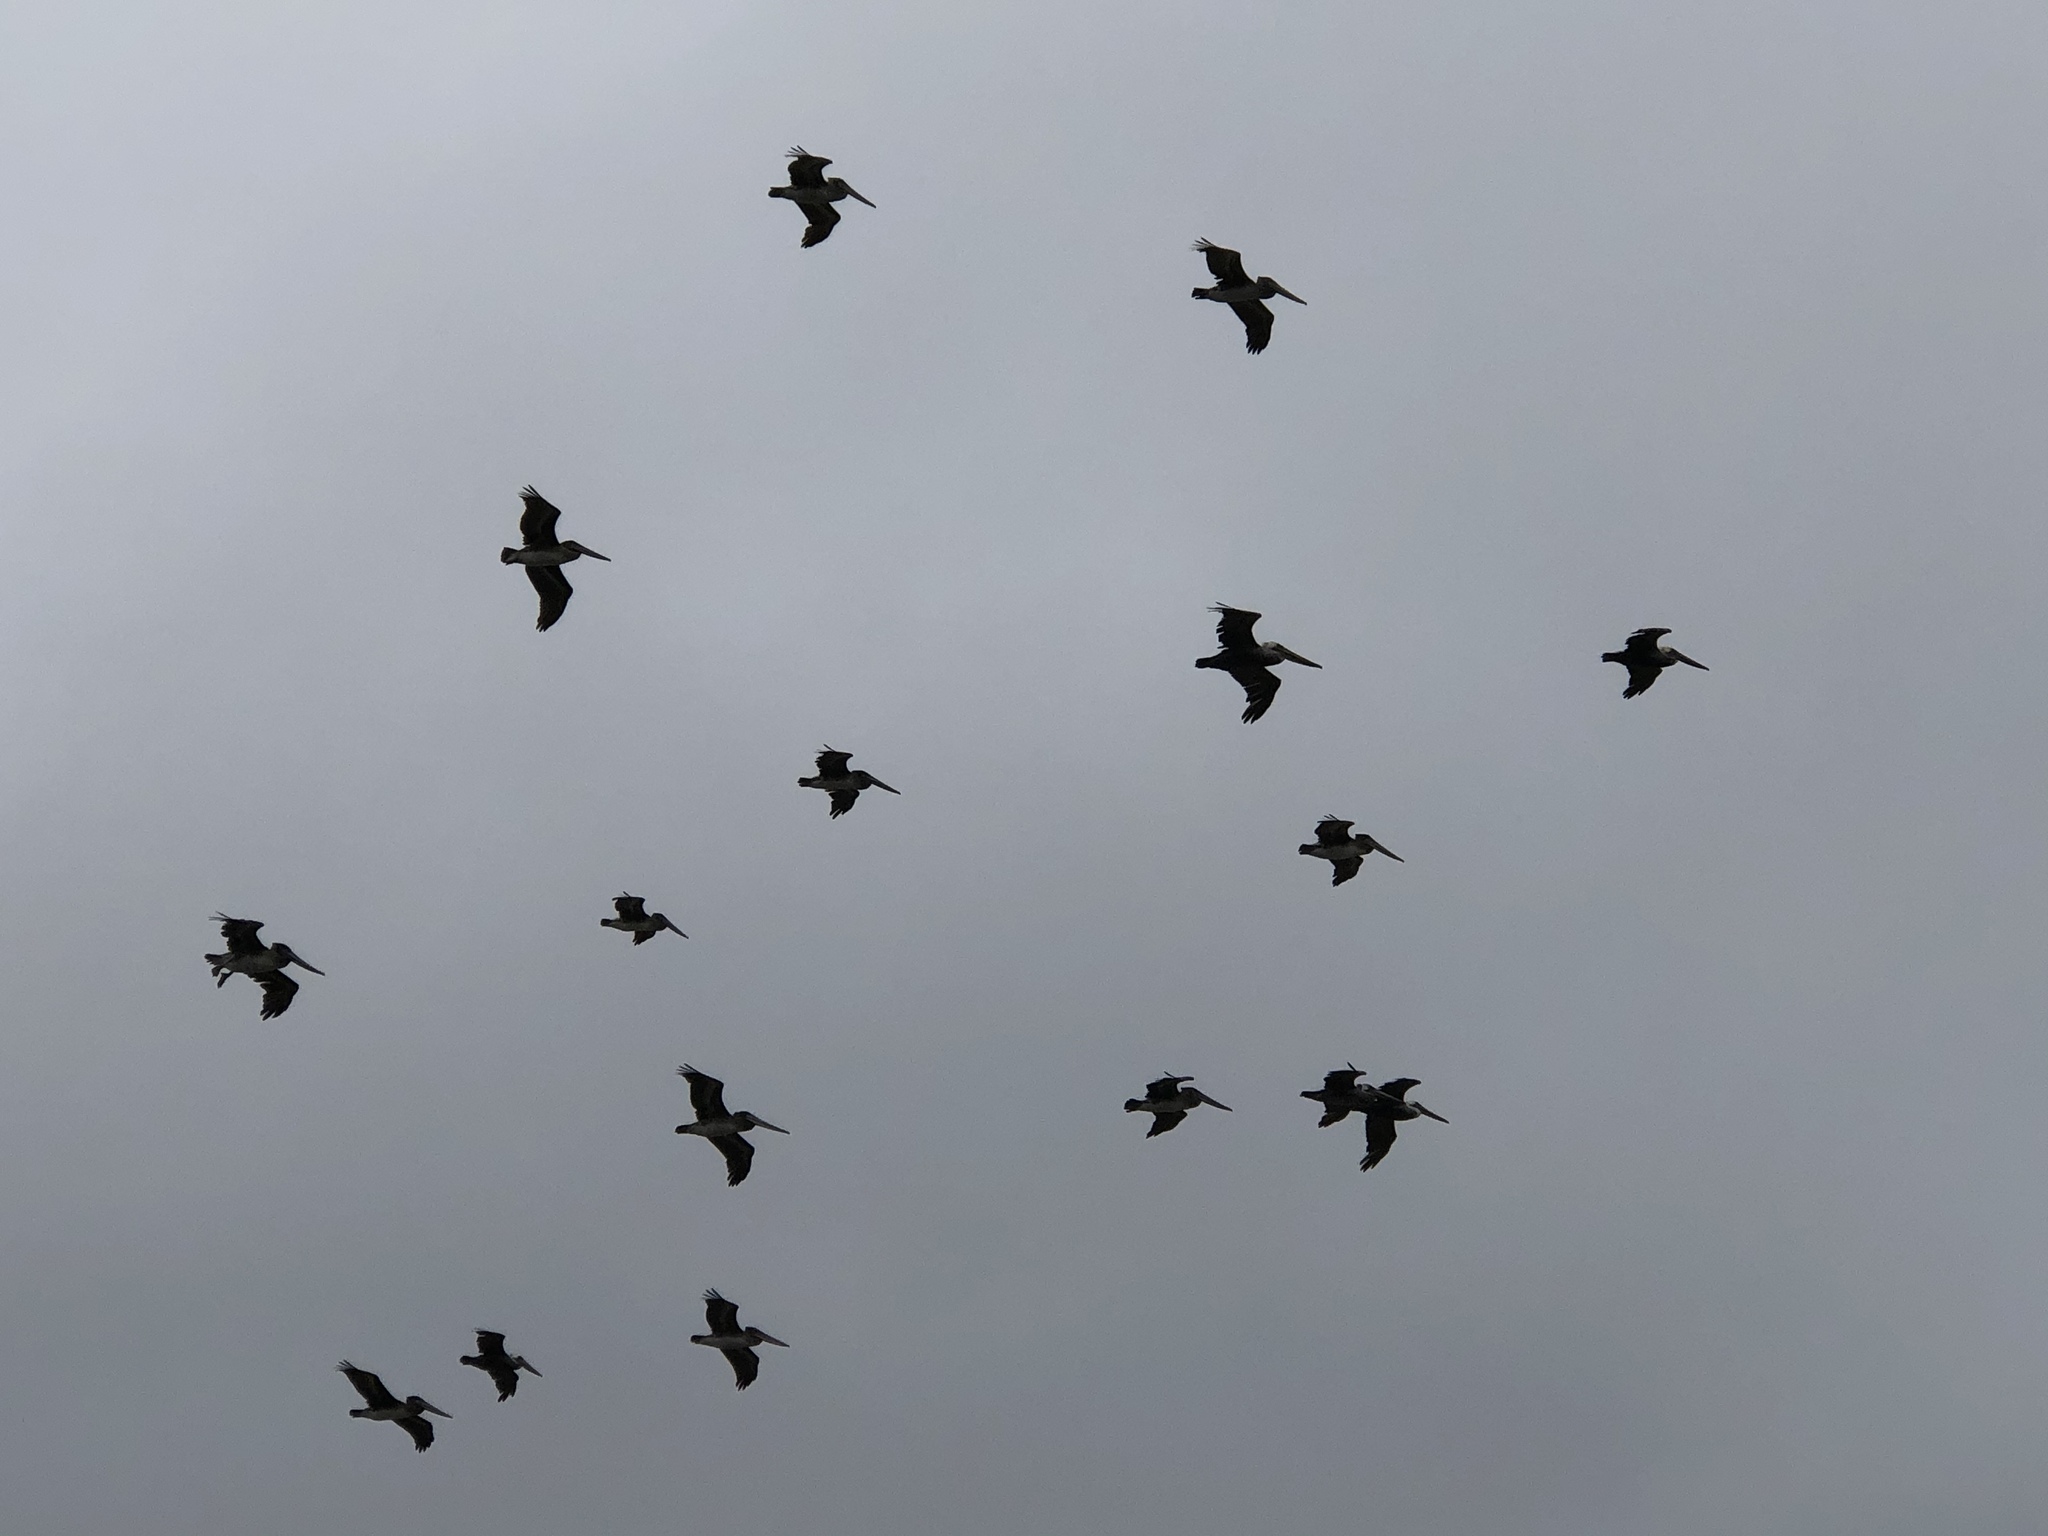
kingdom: Animalia
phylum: Chordata
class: Aves
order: Pelecaniformes
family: Pelecanidae
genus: Pelecanus
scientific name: Pelecanus occidentalis
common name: Brown pelican
